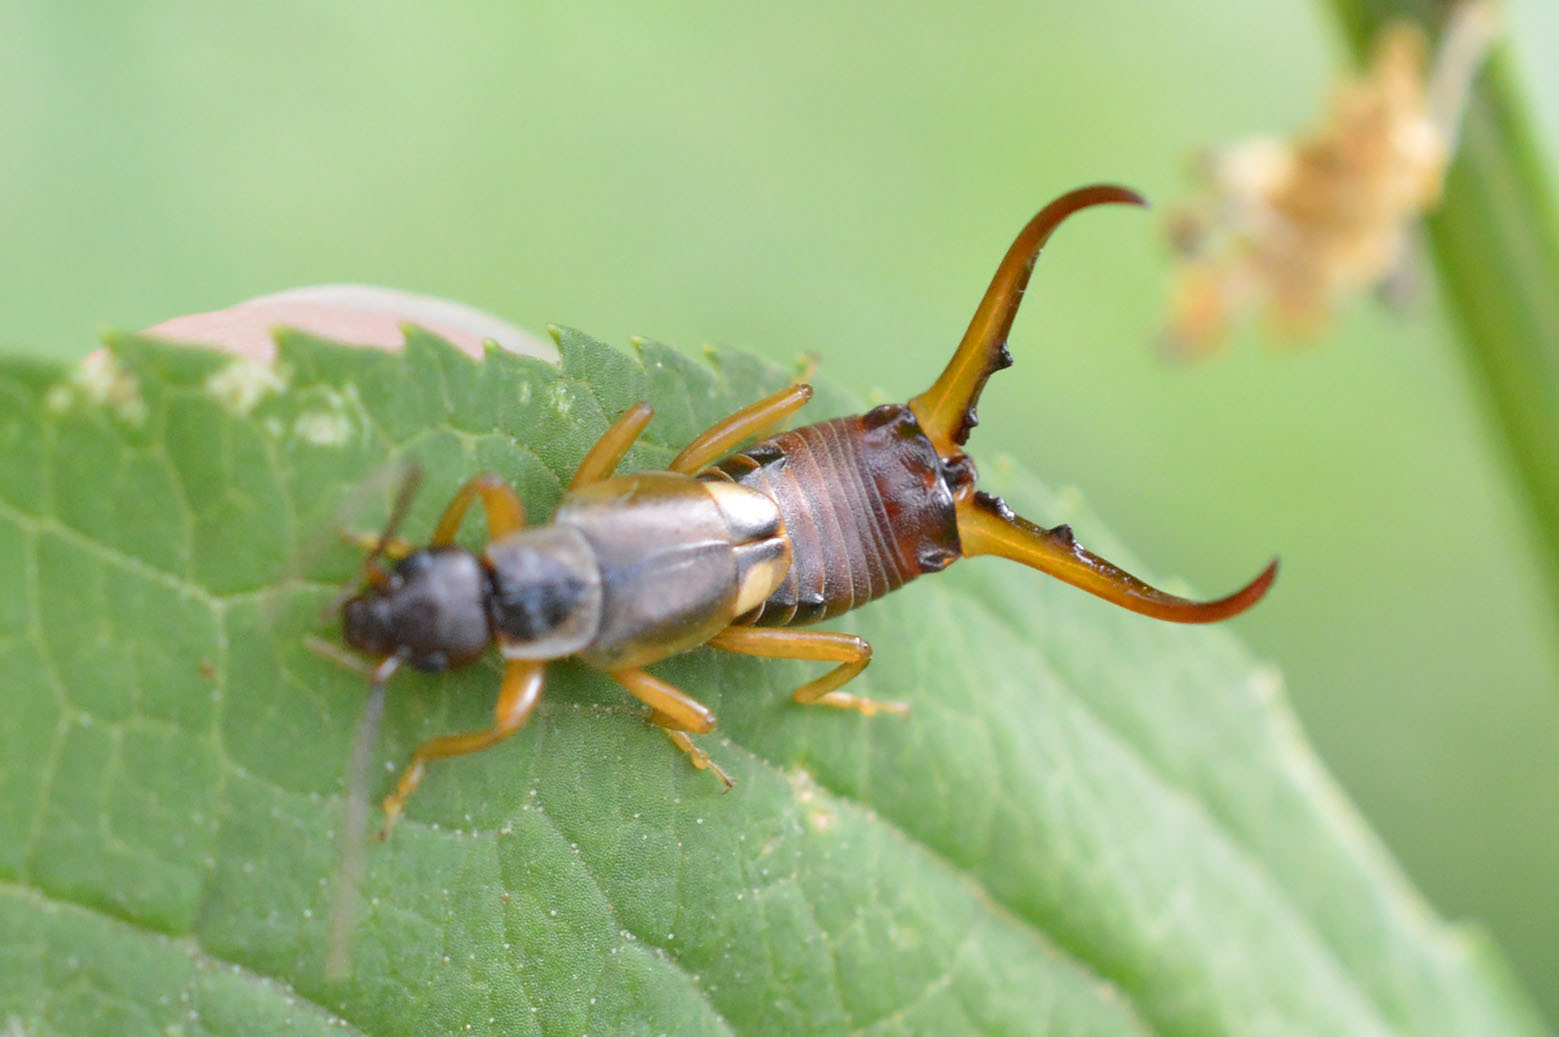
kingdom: Animalia
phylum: Arthropoda
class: Insecta
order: Dermaptera
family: Forficulidae
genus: Forficula
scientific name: Forficula
